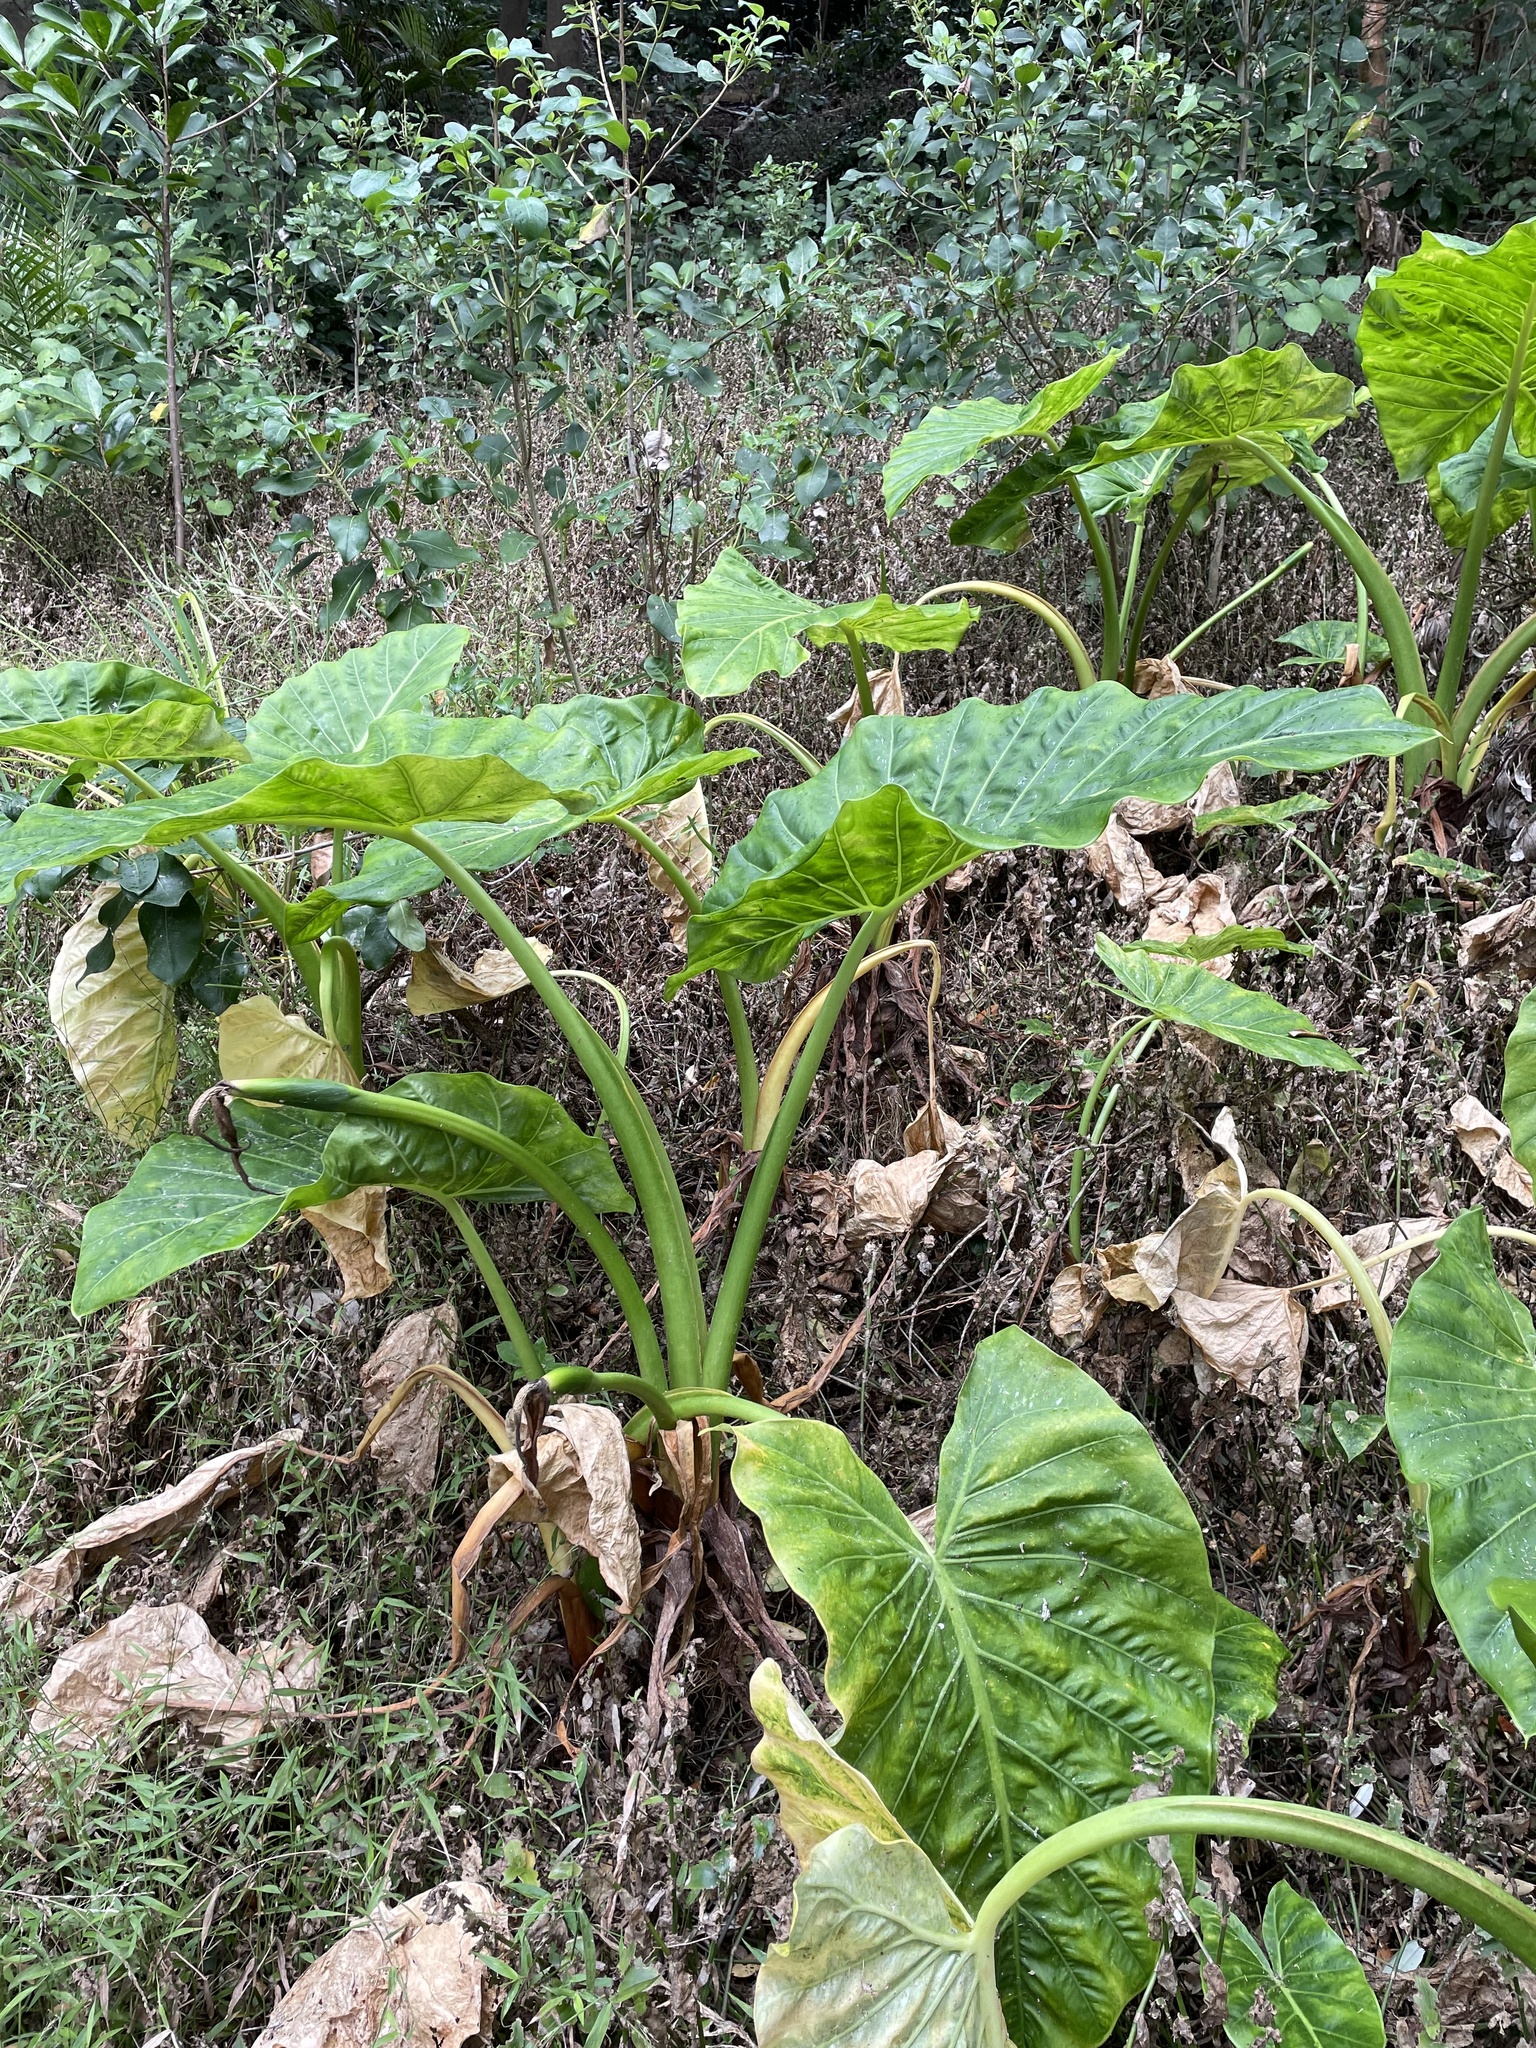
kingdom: Plantae
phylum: Tracheophyta
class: Liliopsida
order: Alismatales
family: Araceae
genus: Alocasia
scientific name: Alocasia brisbanensis
